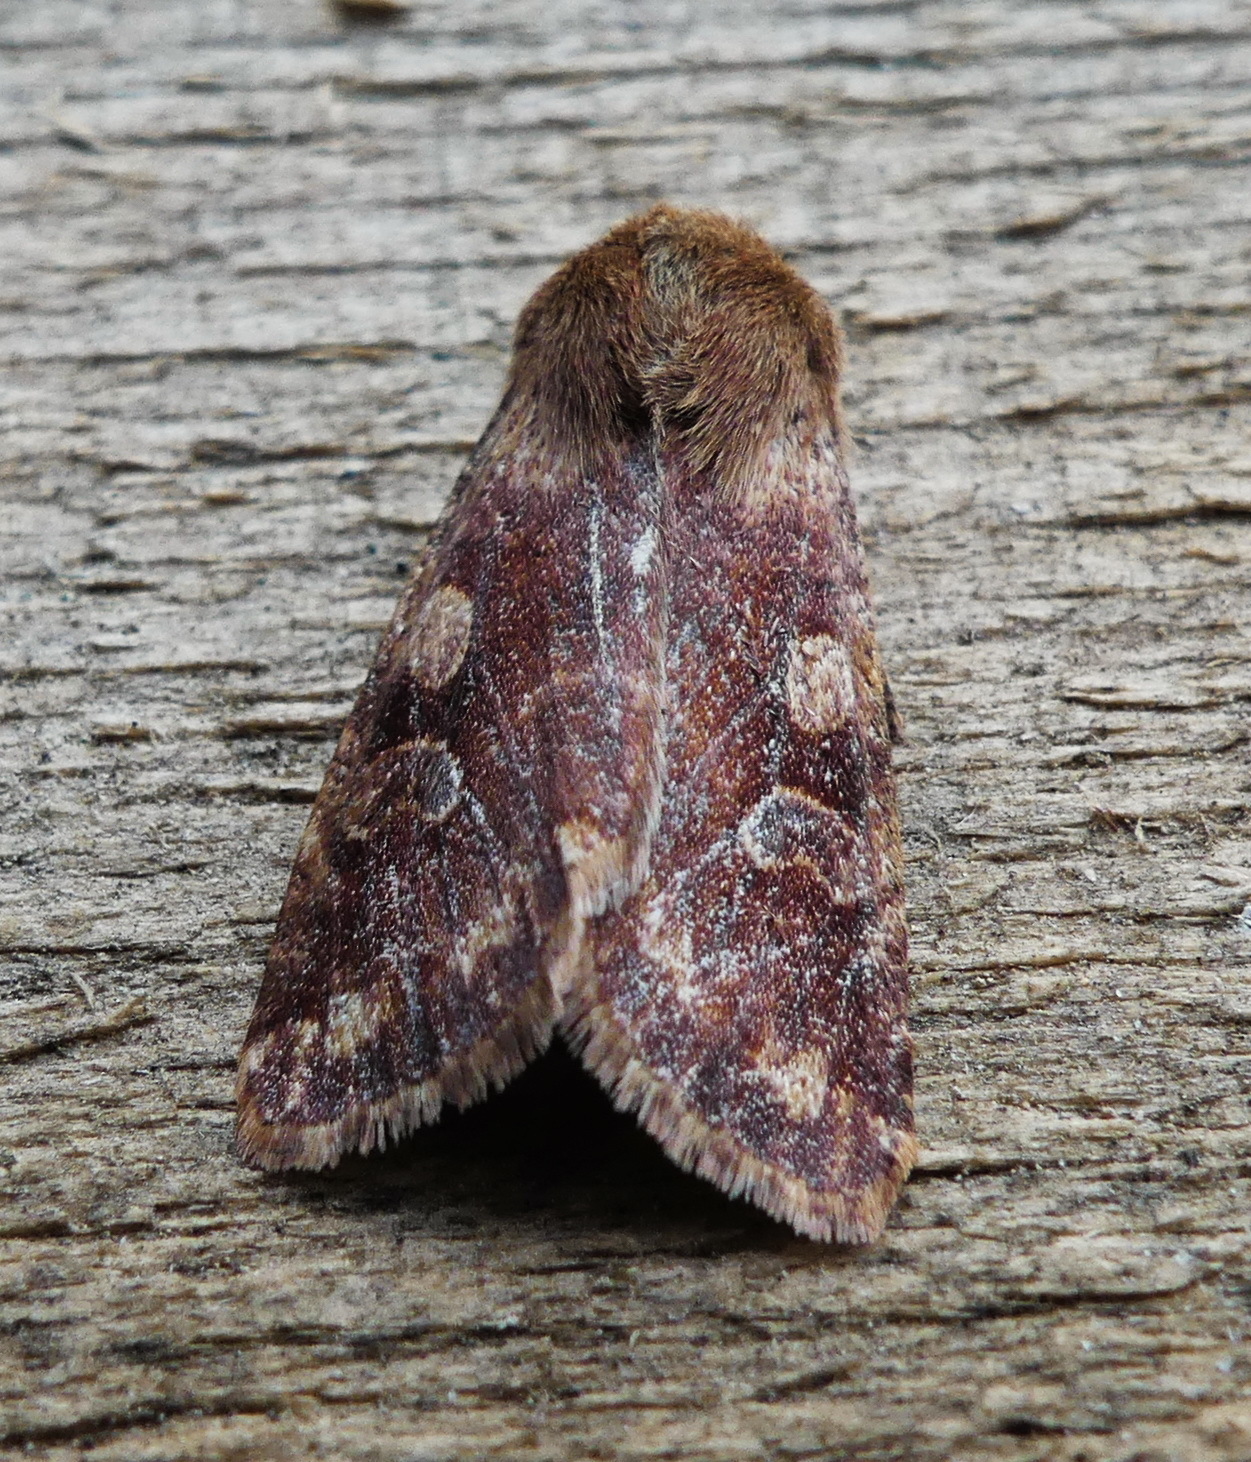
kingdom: Animalia
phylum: Arthropoda
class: Insecta
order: Lepidoptera
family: Noctuidae
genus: Orthosia
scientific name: Orthosia rubescens
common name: Ruby quaker
